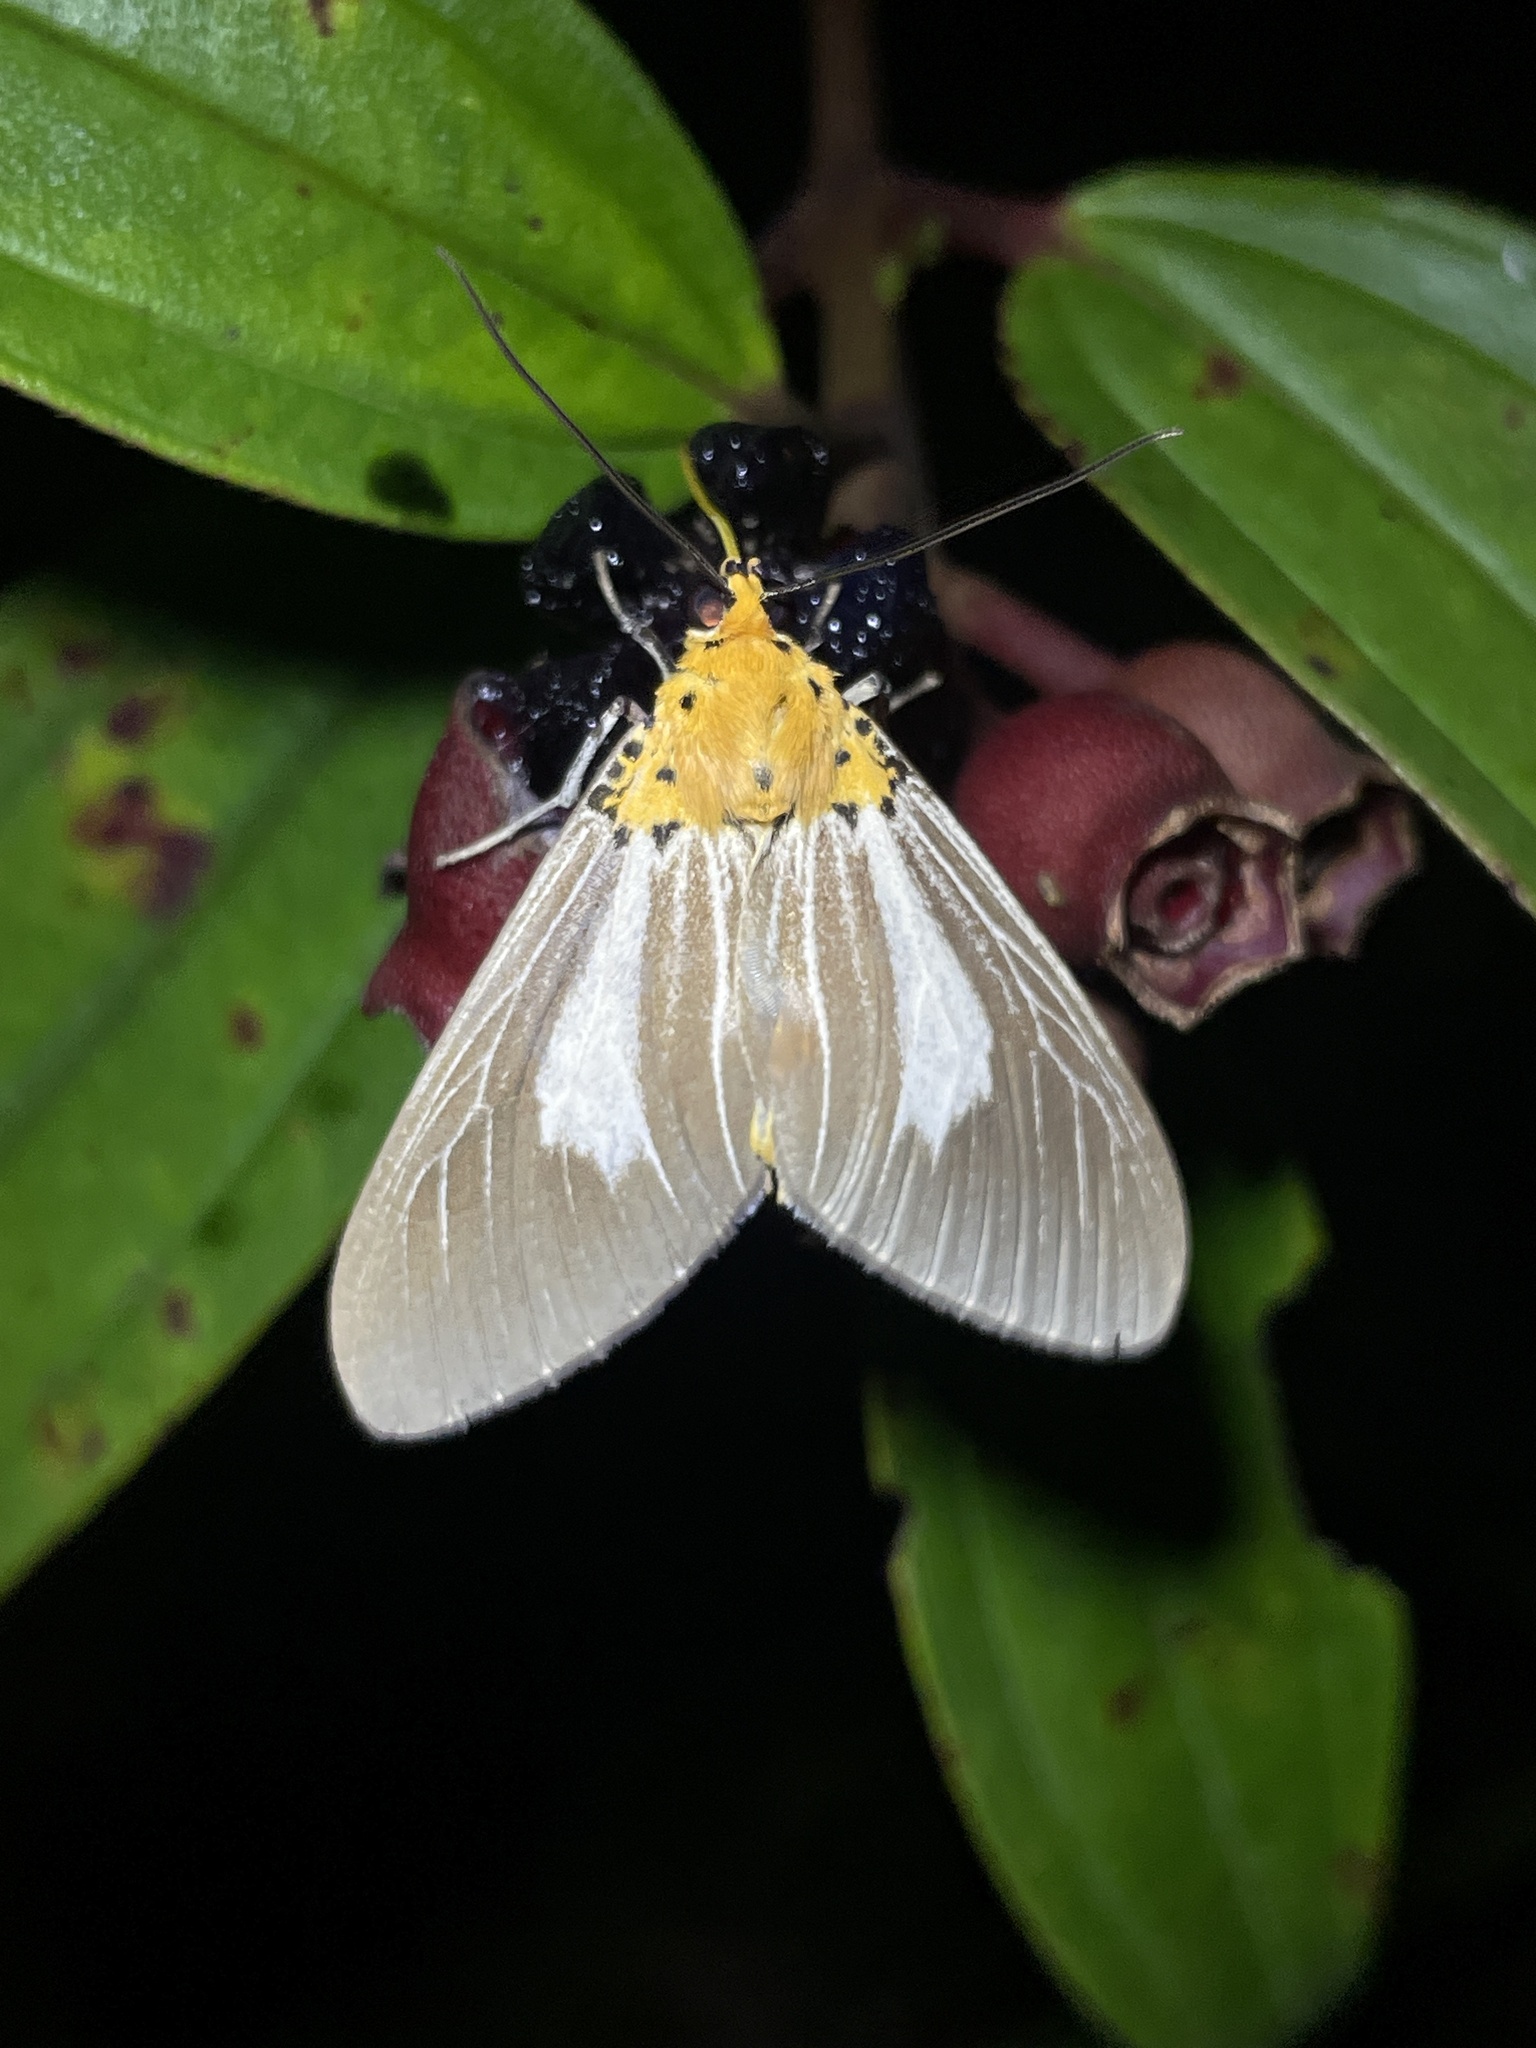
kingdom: Animalia
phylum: Arthropoda
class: Insecta
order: Lepidoptera
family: Erebidae
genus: Asota
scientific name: Asota subsimilis
